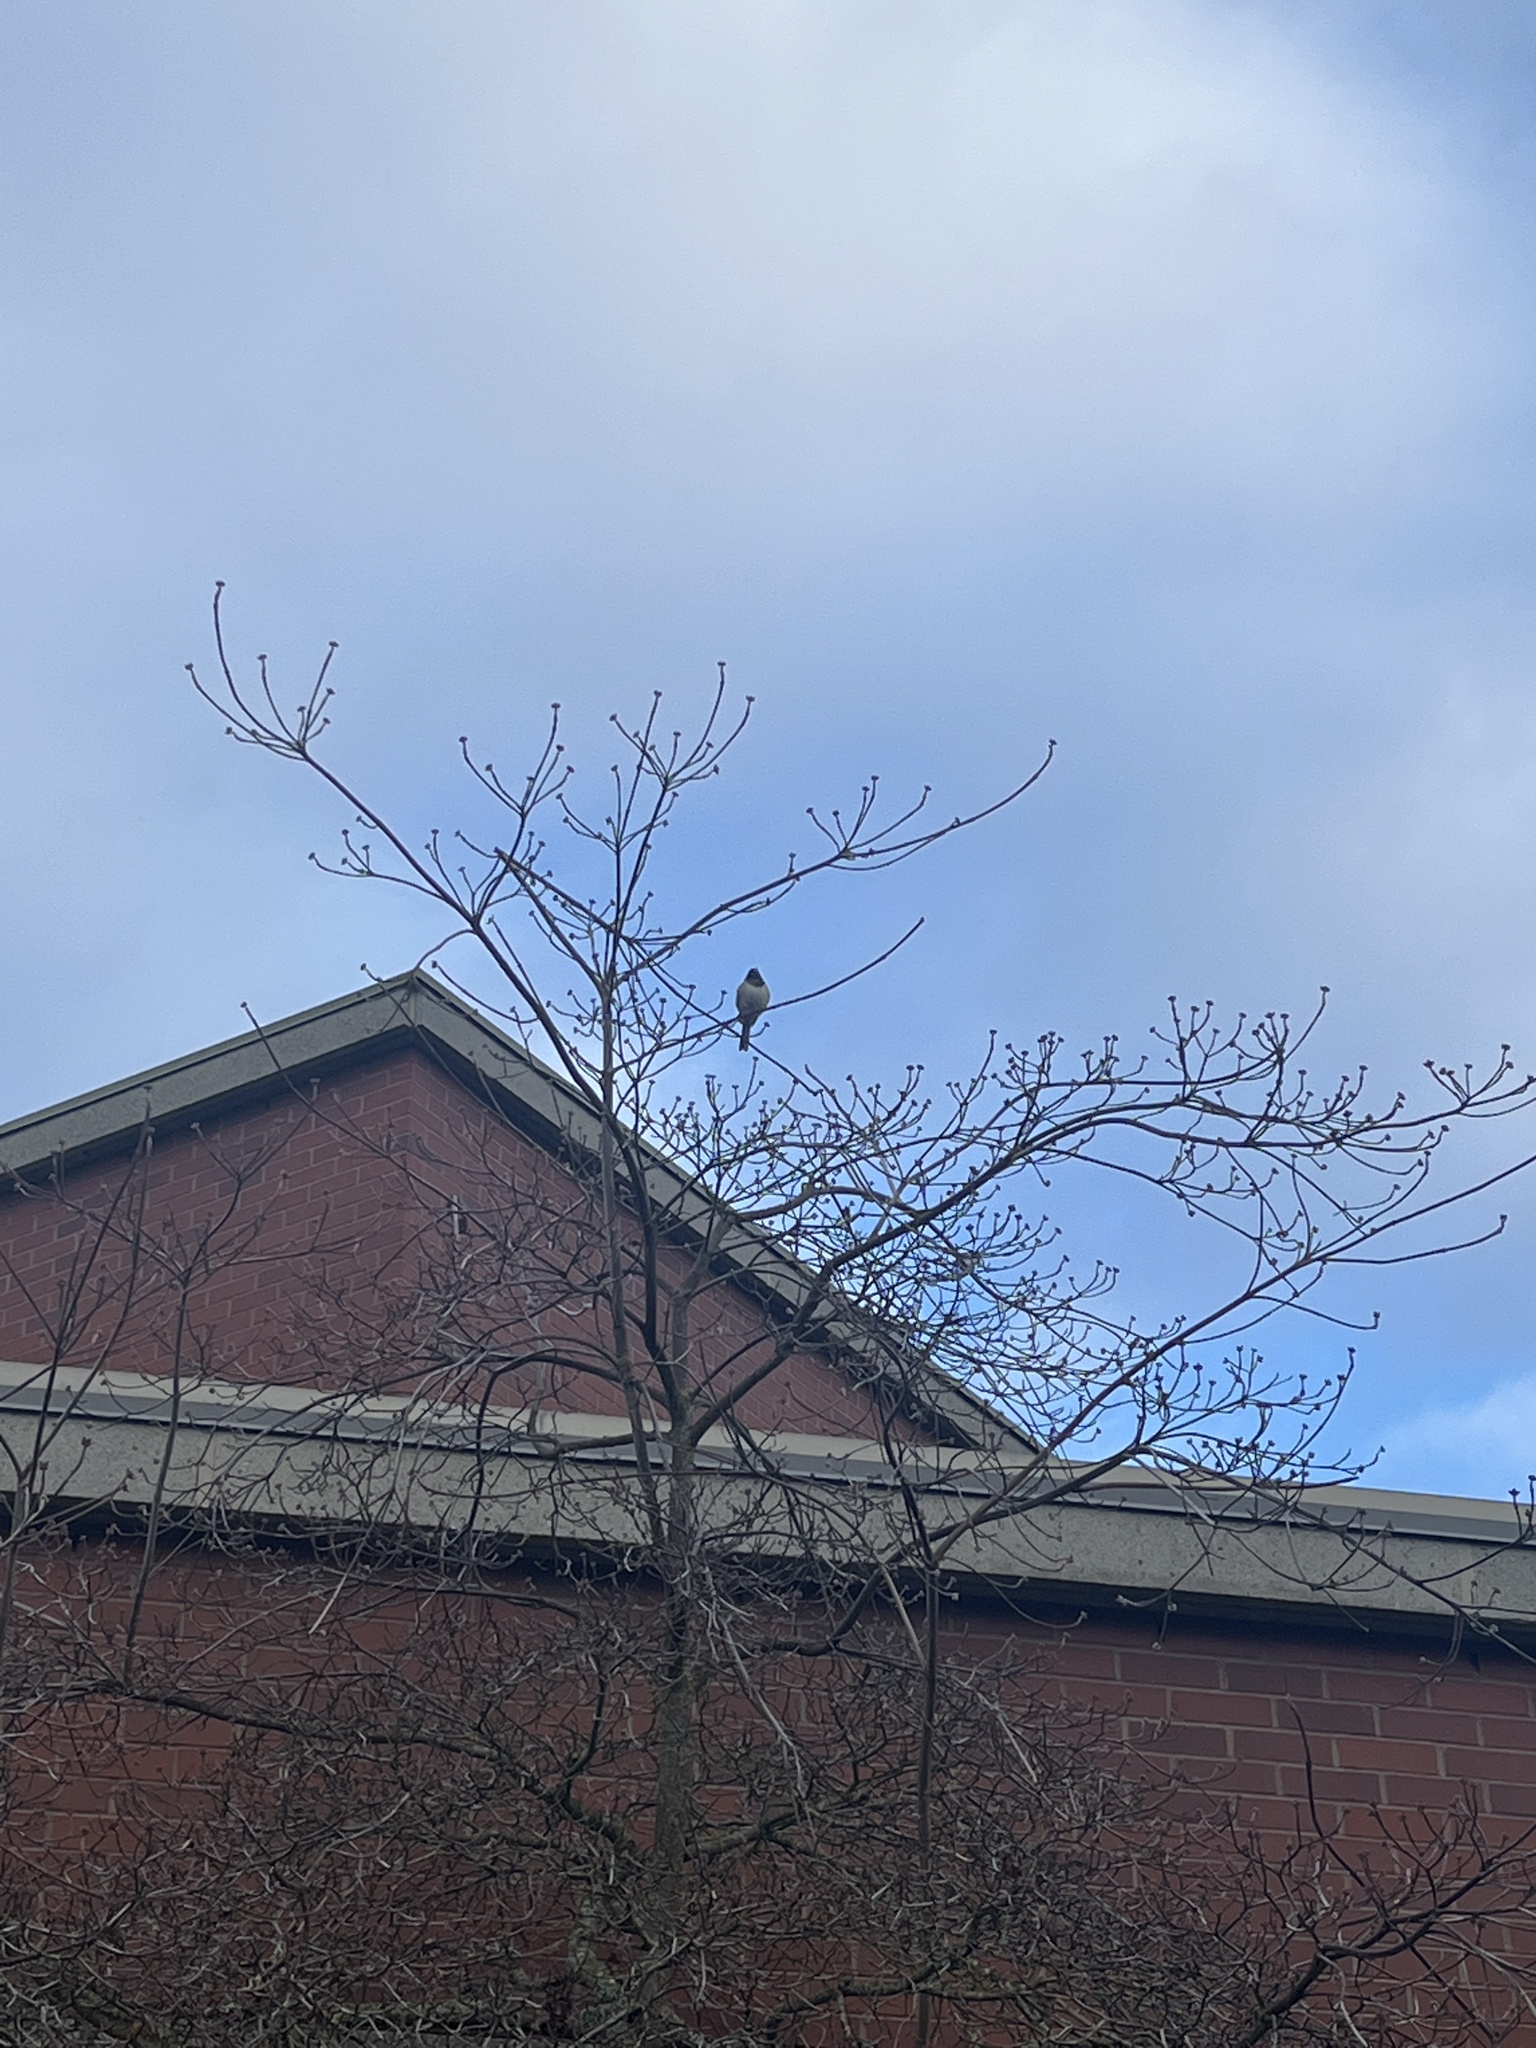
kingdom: Animalia
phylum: Chordata
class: Aves
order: Passeriformes
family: Passerellidae
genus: Junco
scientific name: Junco hyemalis
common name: Dark-eyed junco
